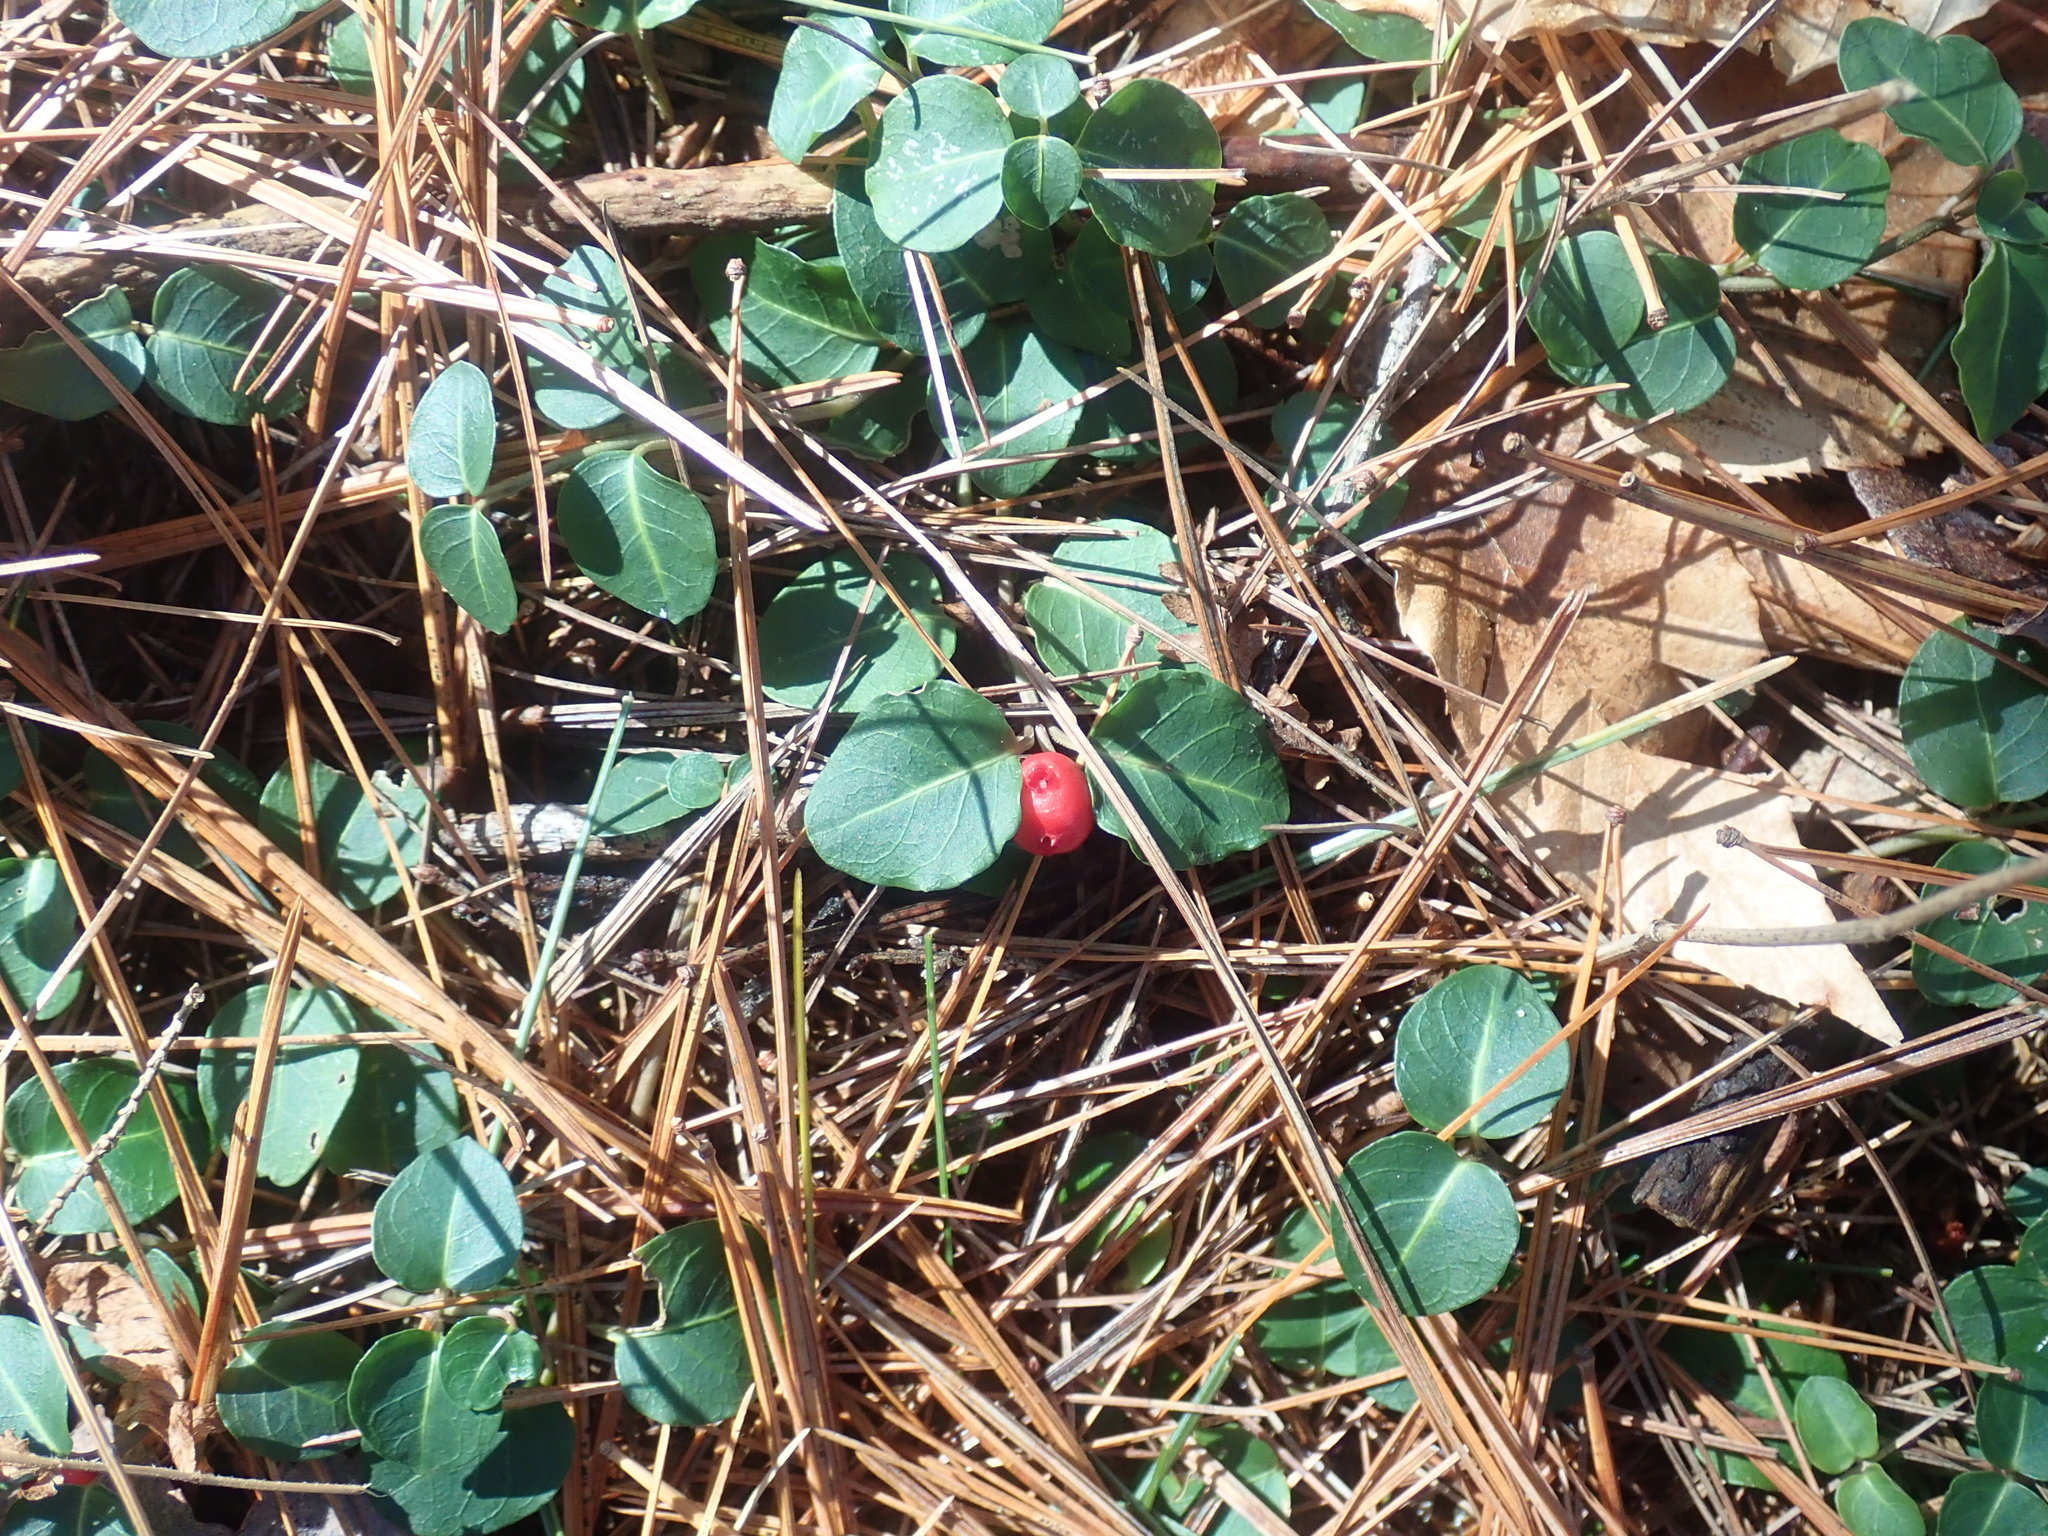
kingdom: Plantae
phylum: Tracheophyta
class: Magnoliopsida
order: Gentianales
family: Rubiaceae
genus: Mitchella
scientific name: Mitchella repens
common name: Partridge-berry
